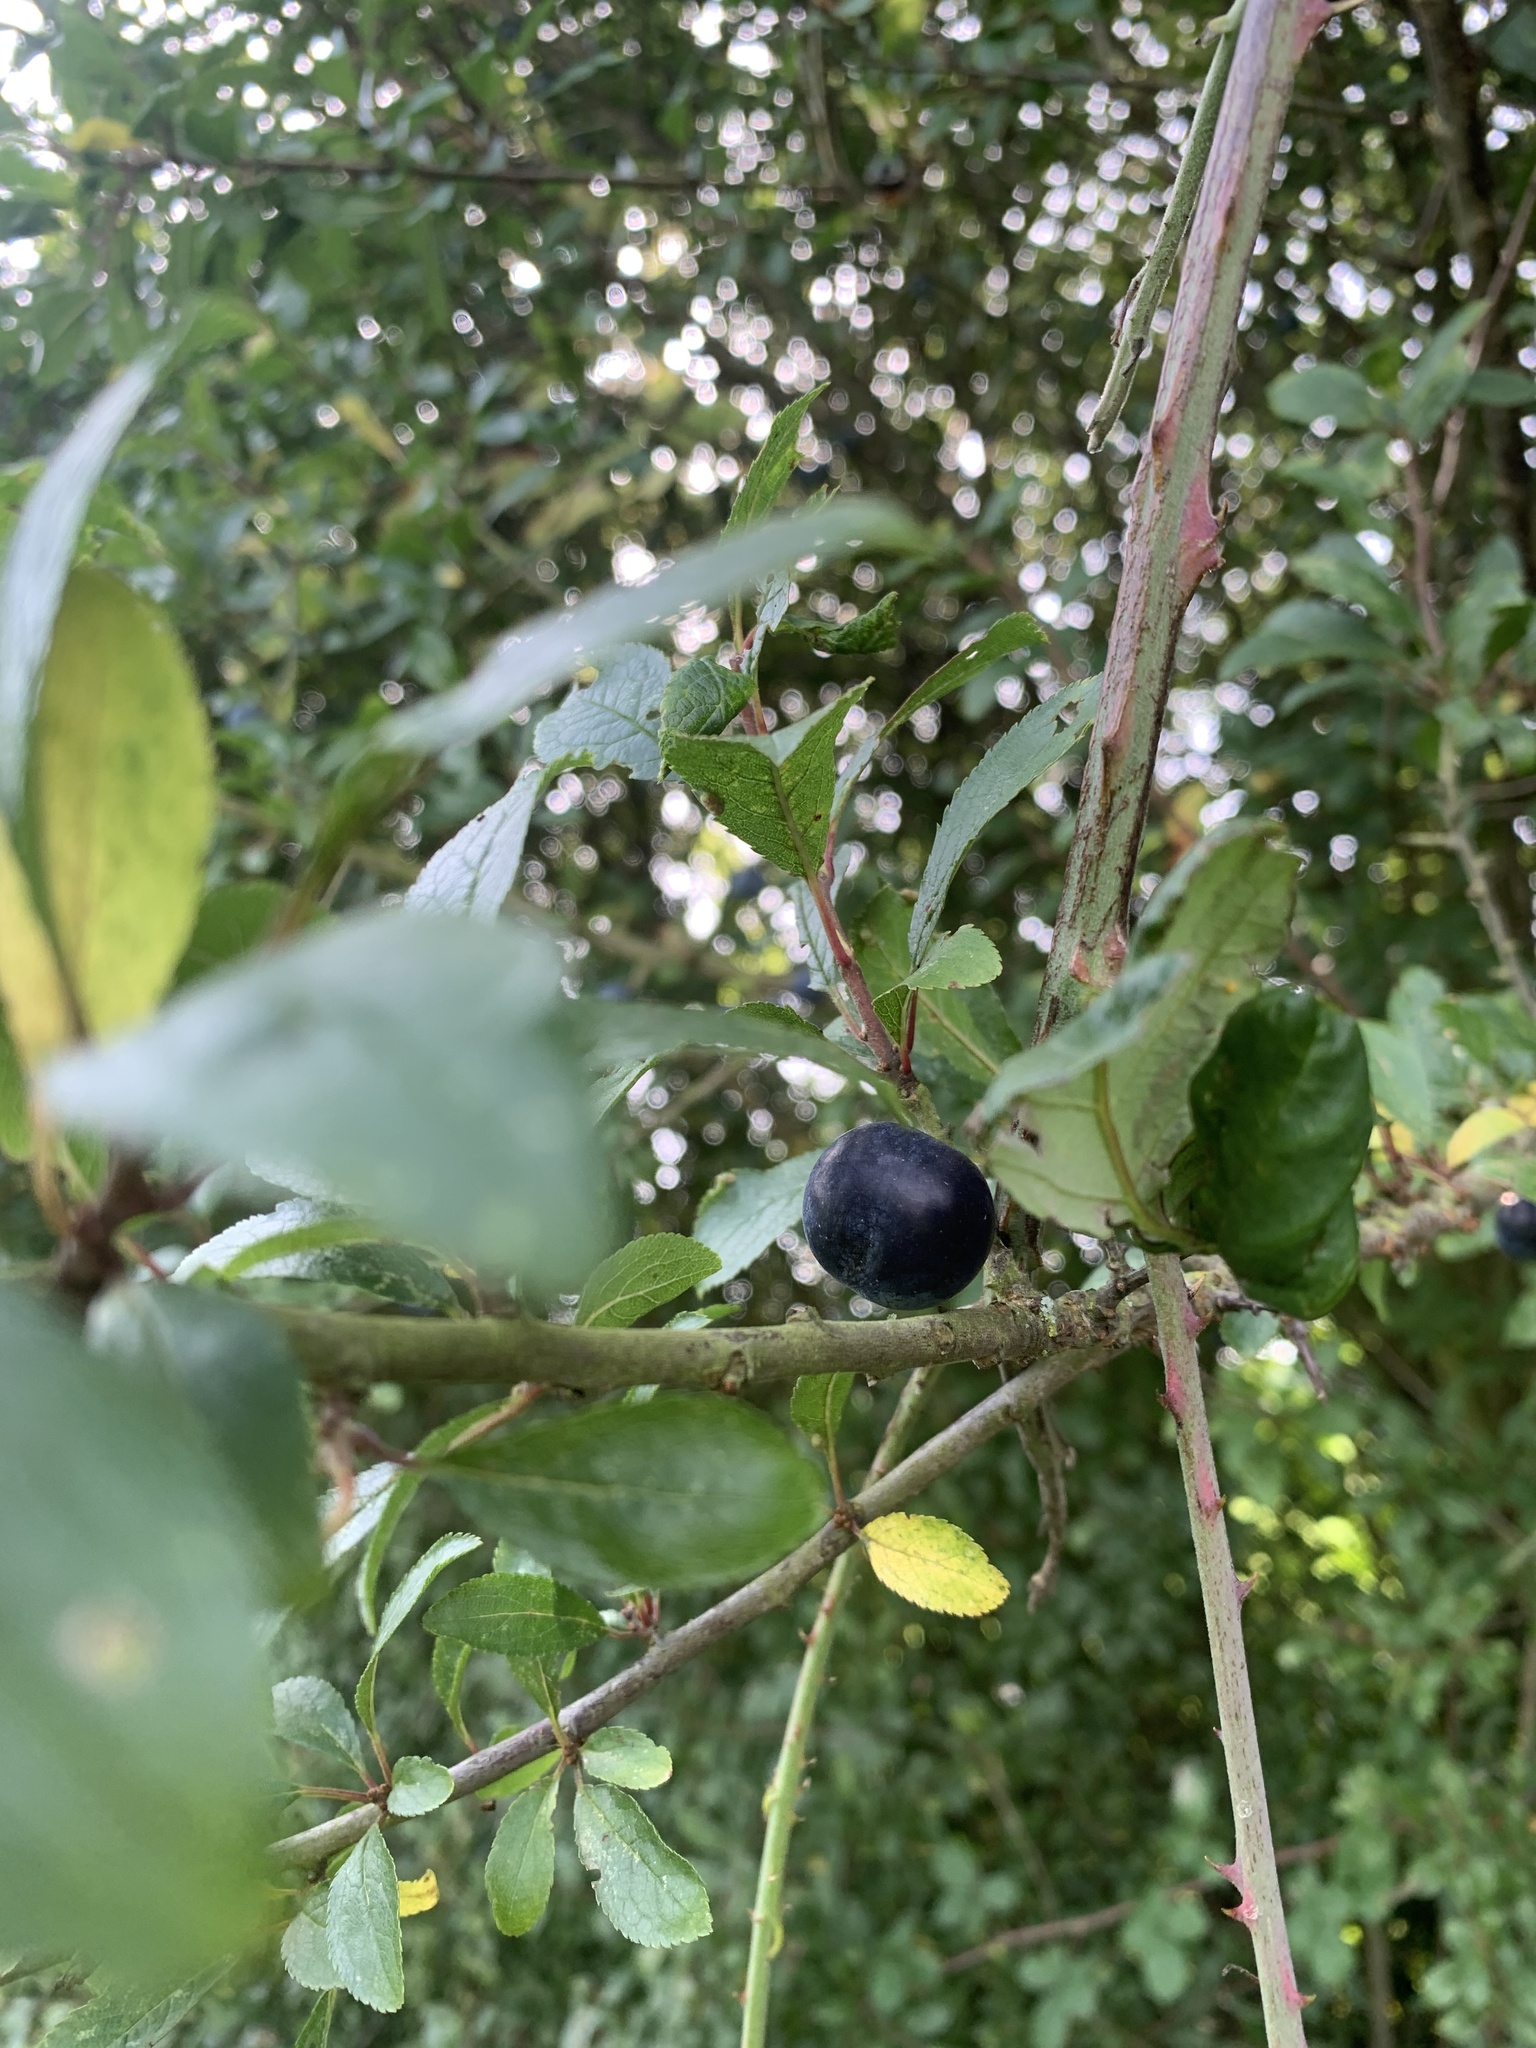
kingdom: Plantae
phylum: Tracheophyta
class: Magnoliopsida
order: Rosales
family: Rosaceae
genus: Prunus
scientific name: Prunus spinosa
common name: Blackthorn
